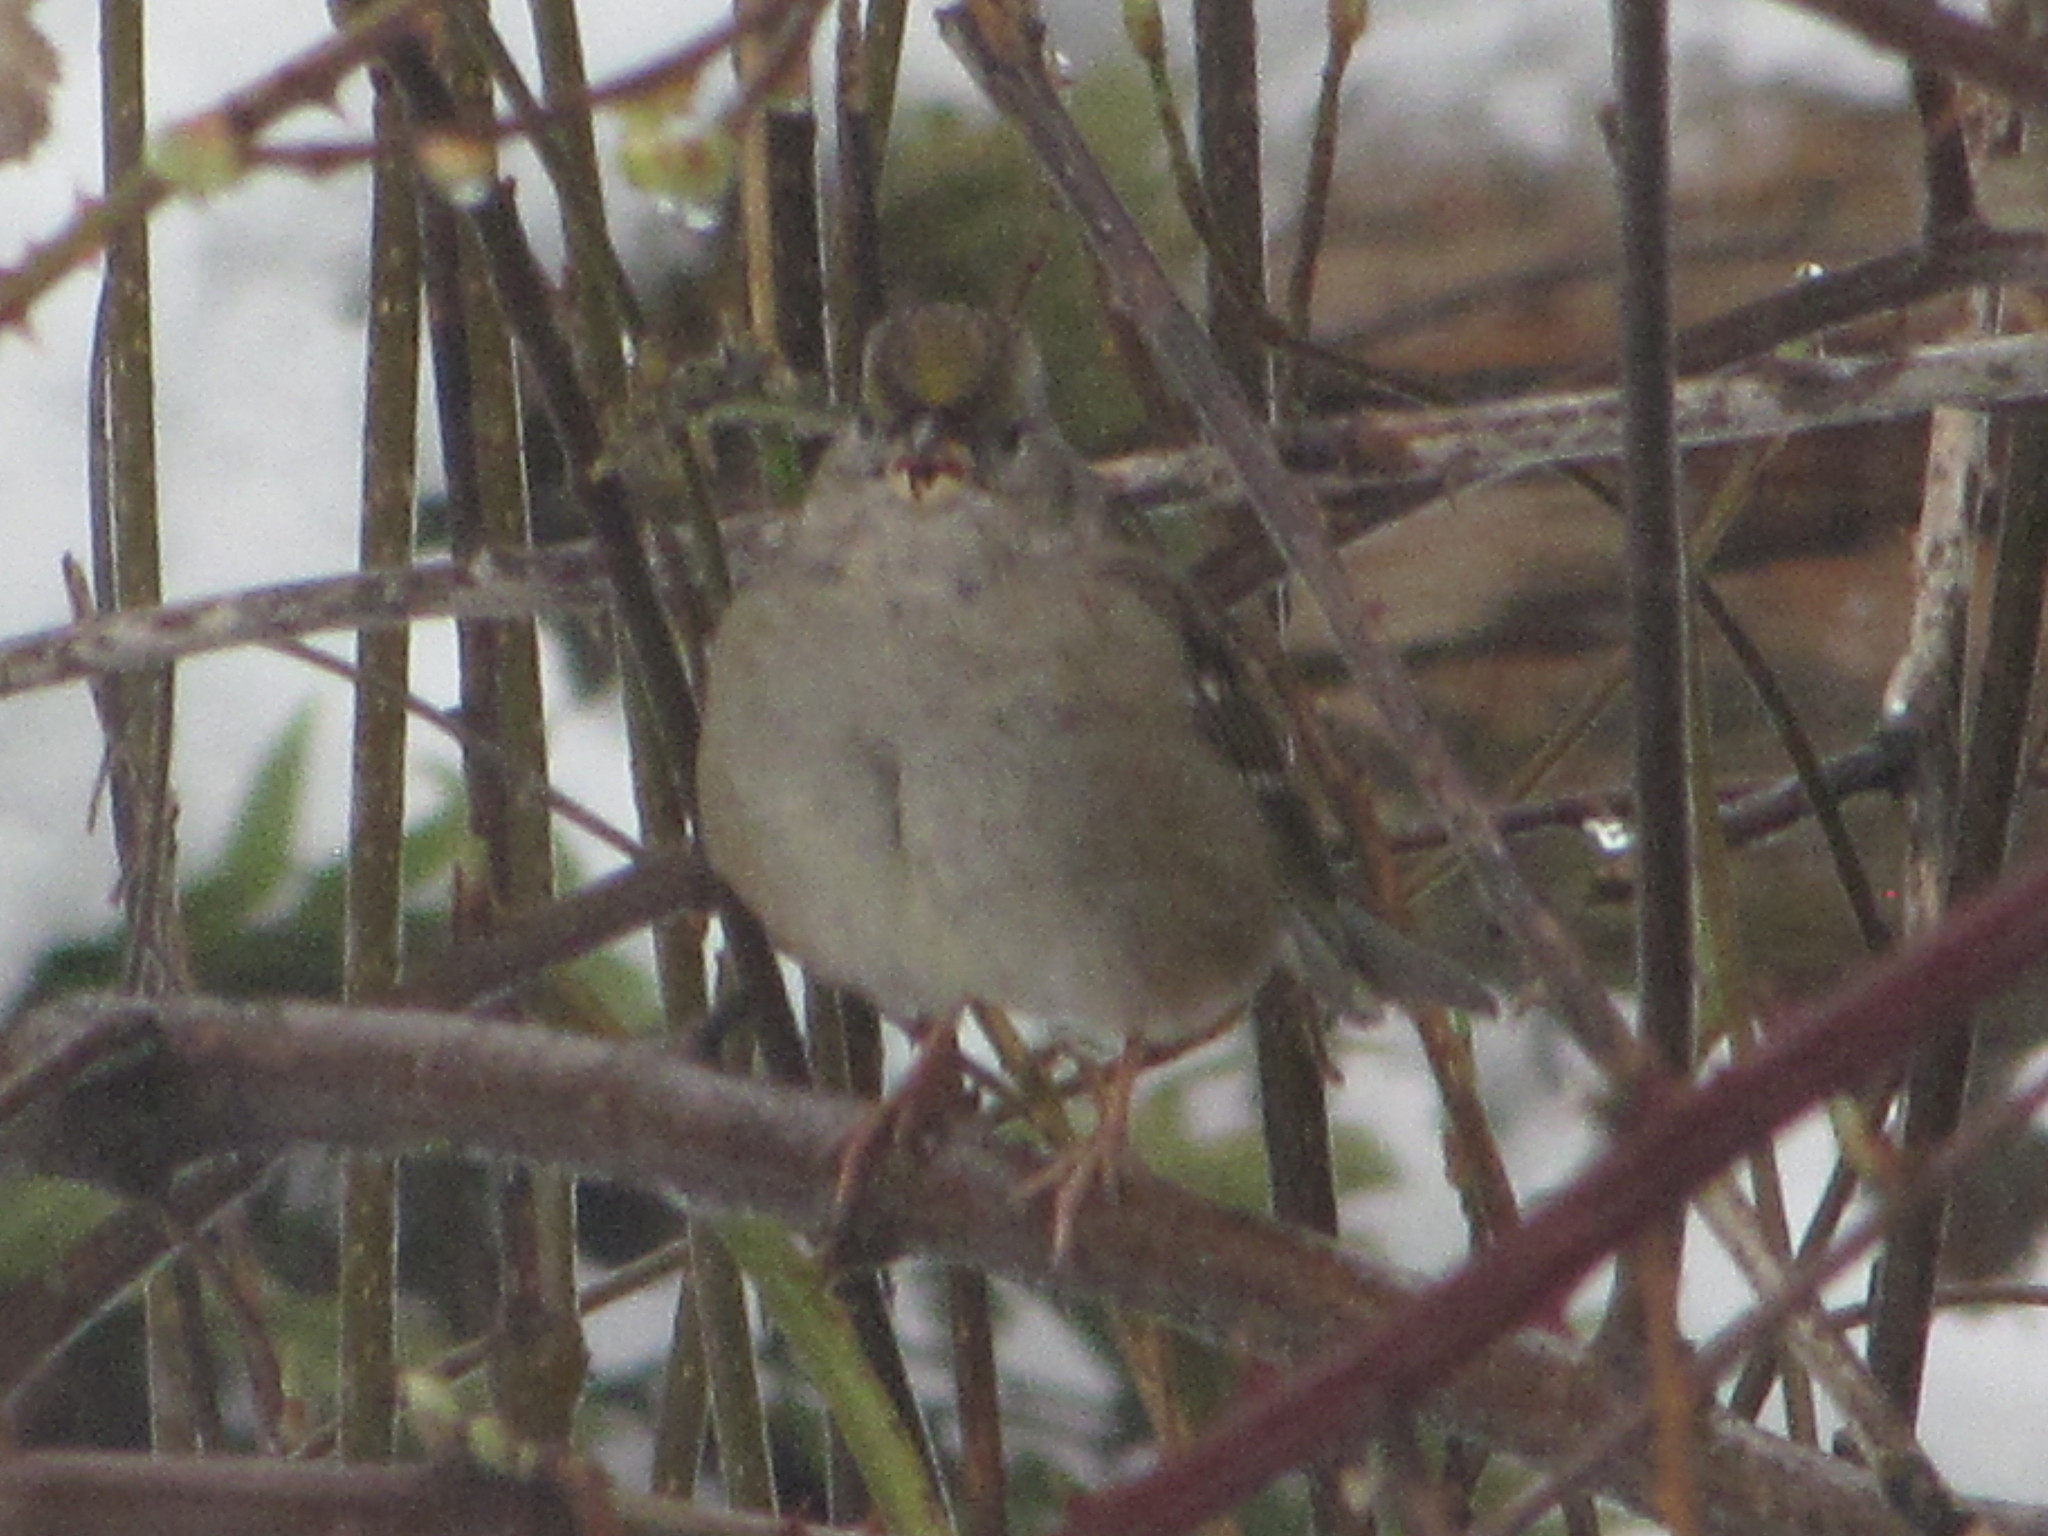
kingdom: Animalia
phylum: Chordata
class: Aves
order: Passeriformes
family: Passerellidae
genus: Zonotrichia
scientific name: Zonotrichia atricapilla
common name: Golden-crowned sparrow
